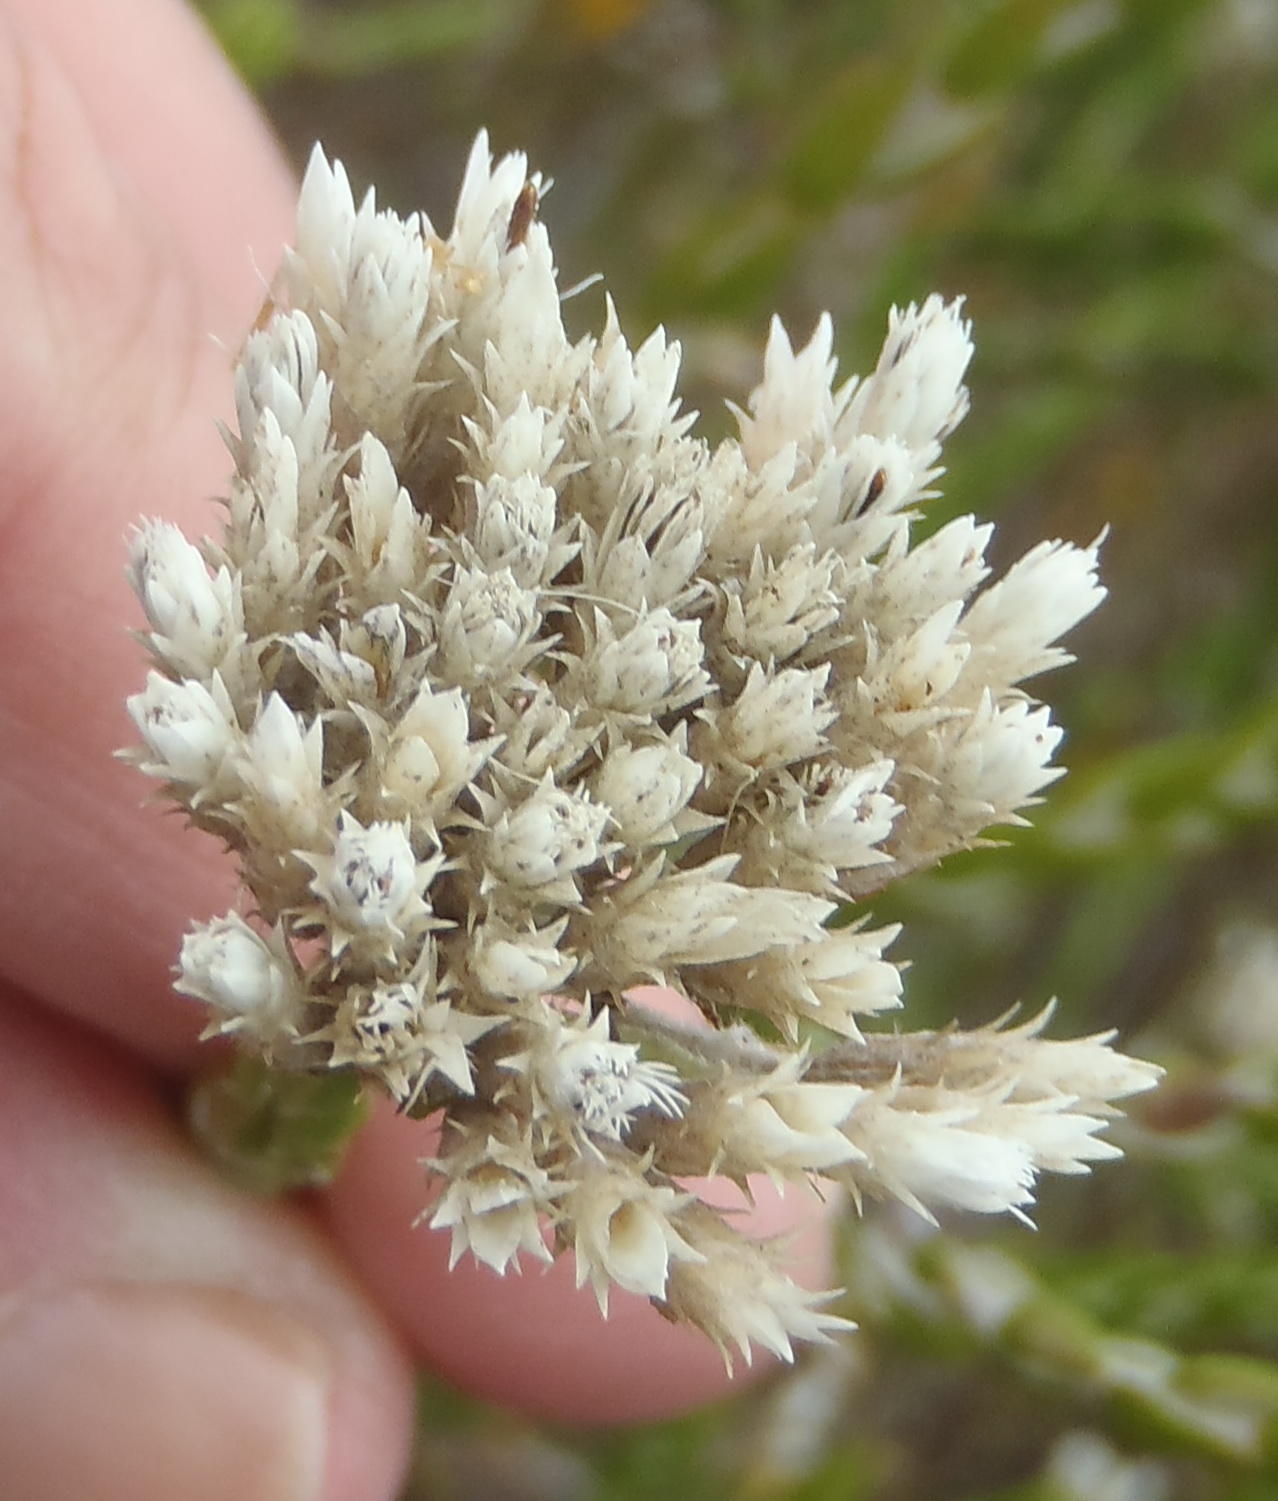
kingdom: Plantae
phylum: Tracheophyta
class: Magnoliopsida
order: Asterales
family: Asteraceae
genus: Metalasia
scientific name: Metalasia pulcherrima
